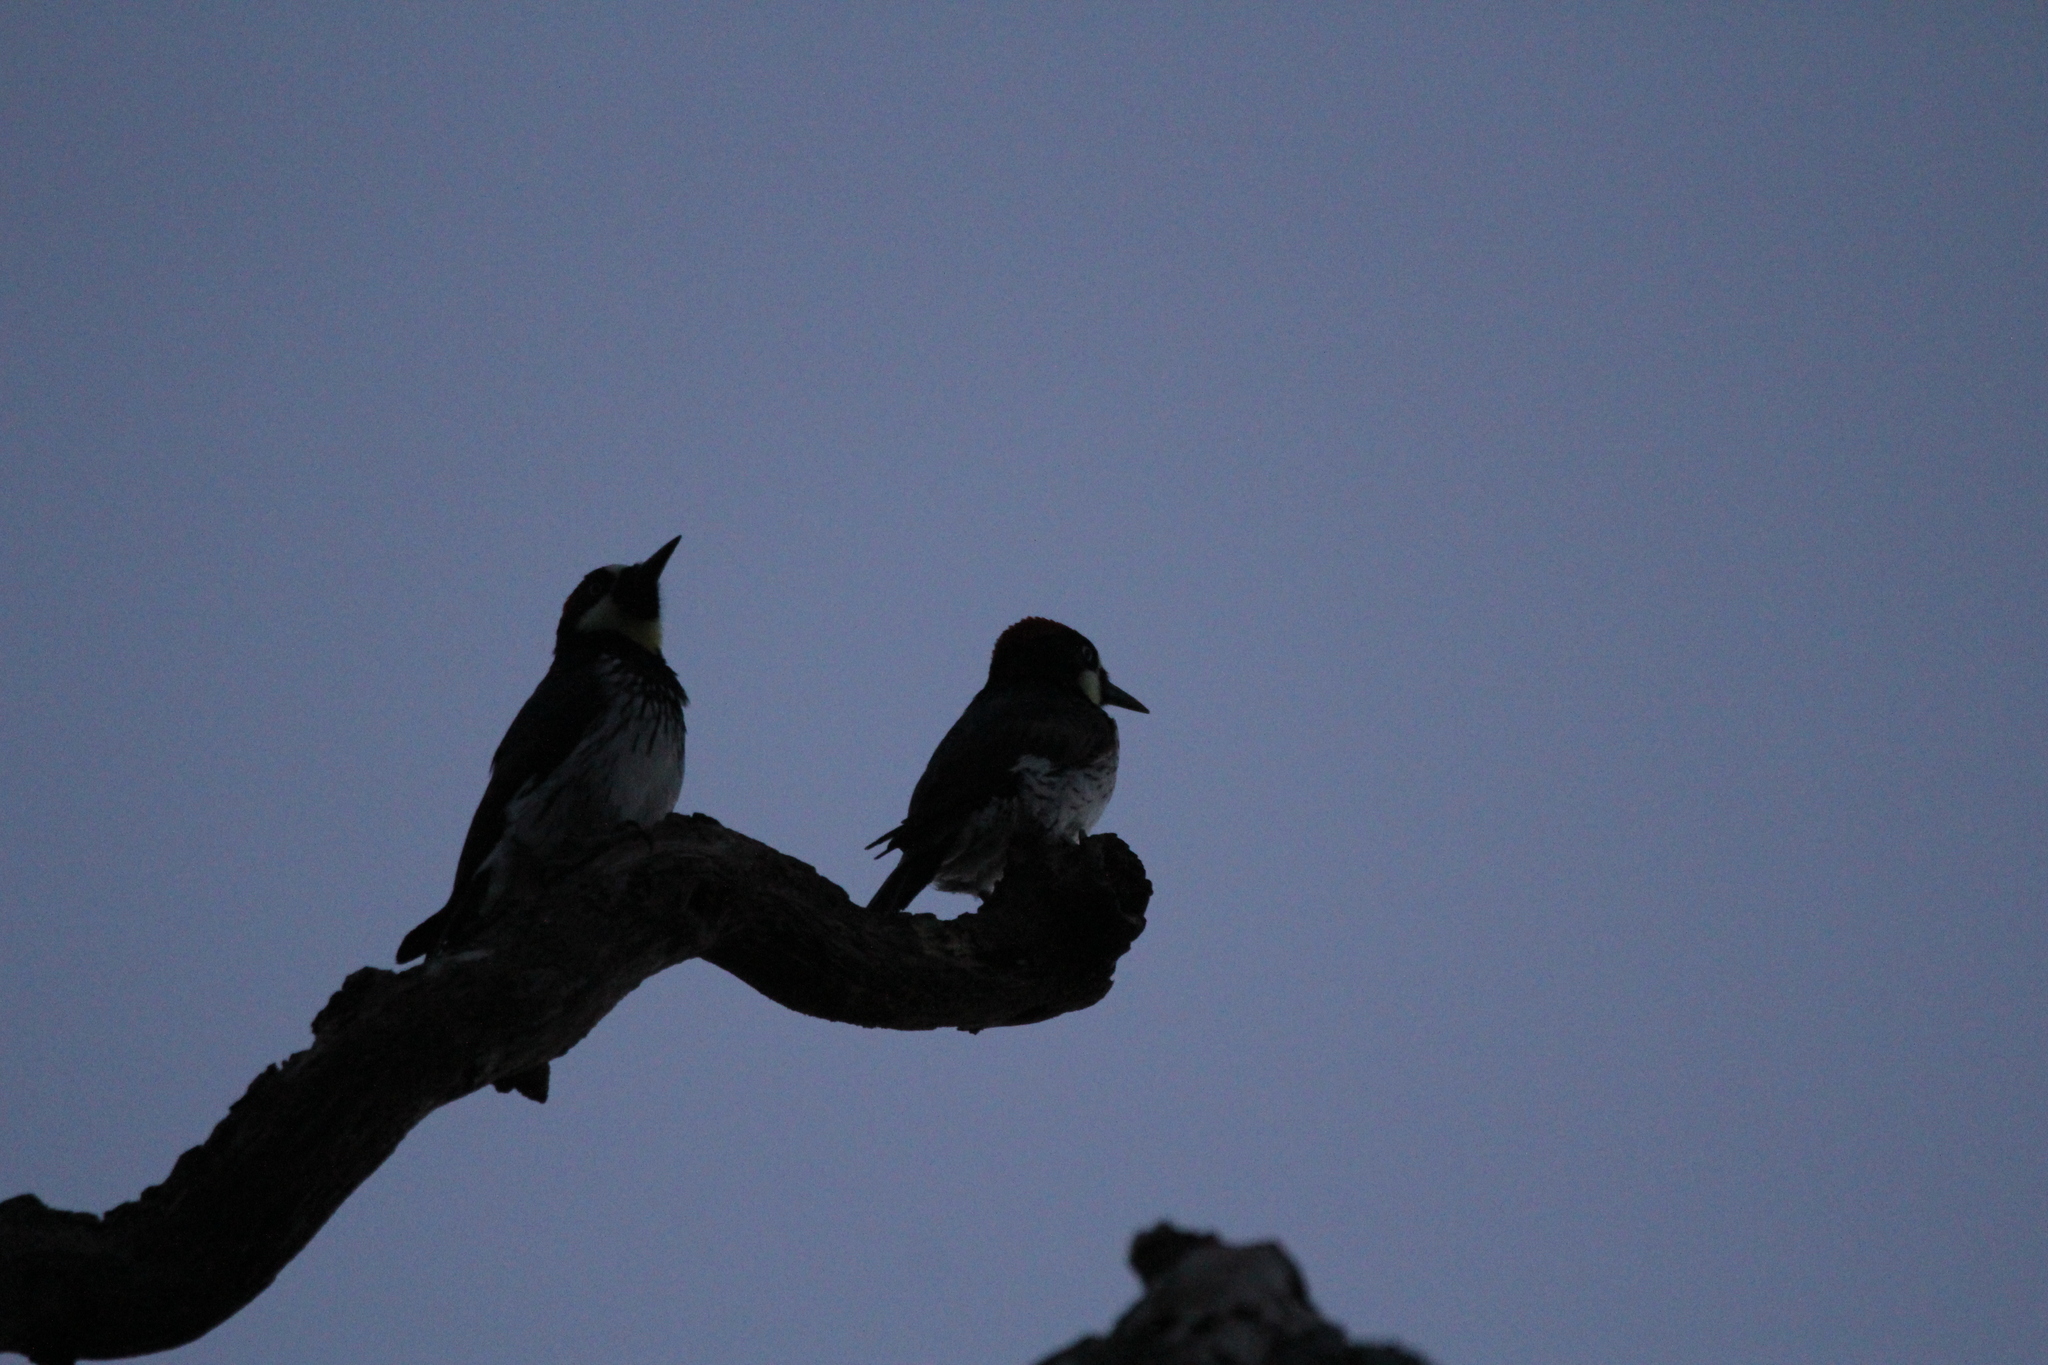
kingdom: Animalia
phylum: Chordata
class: Aves
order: Piciformes
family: Picidae
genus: Melanerpes
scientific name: Melanerpes formicivorus
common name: Acorn woodpecker
